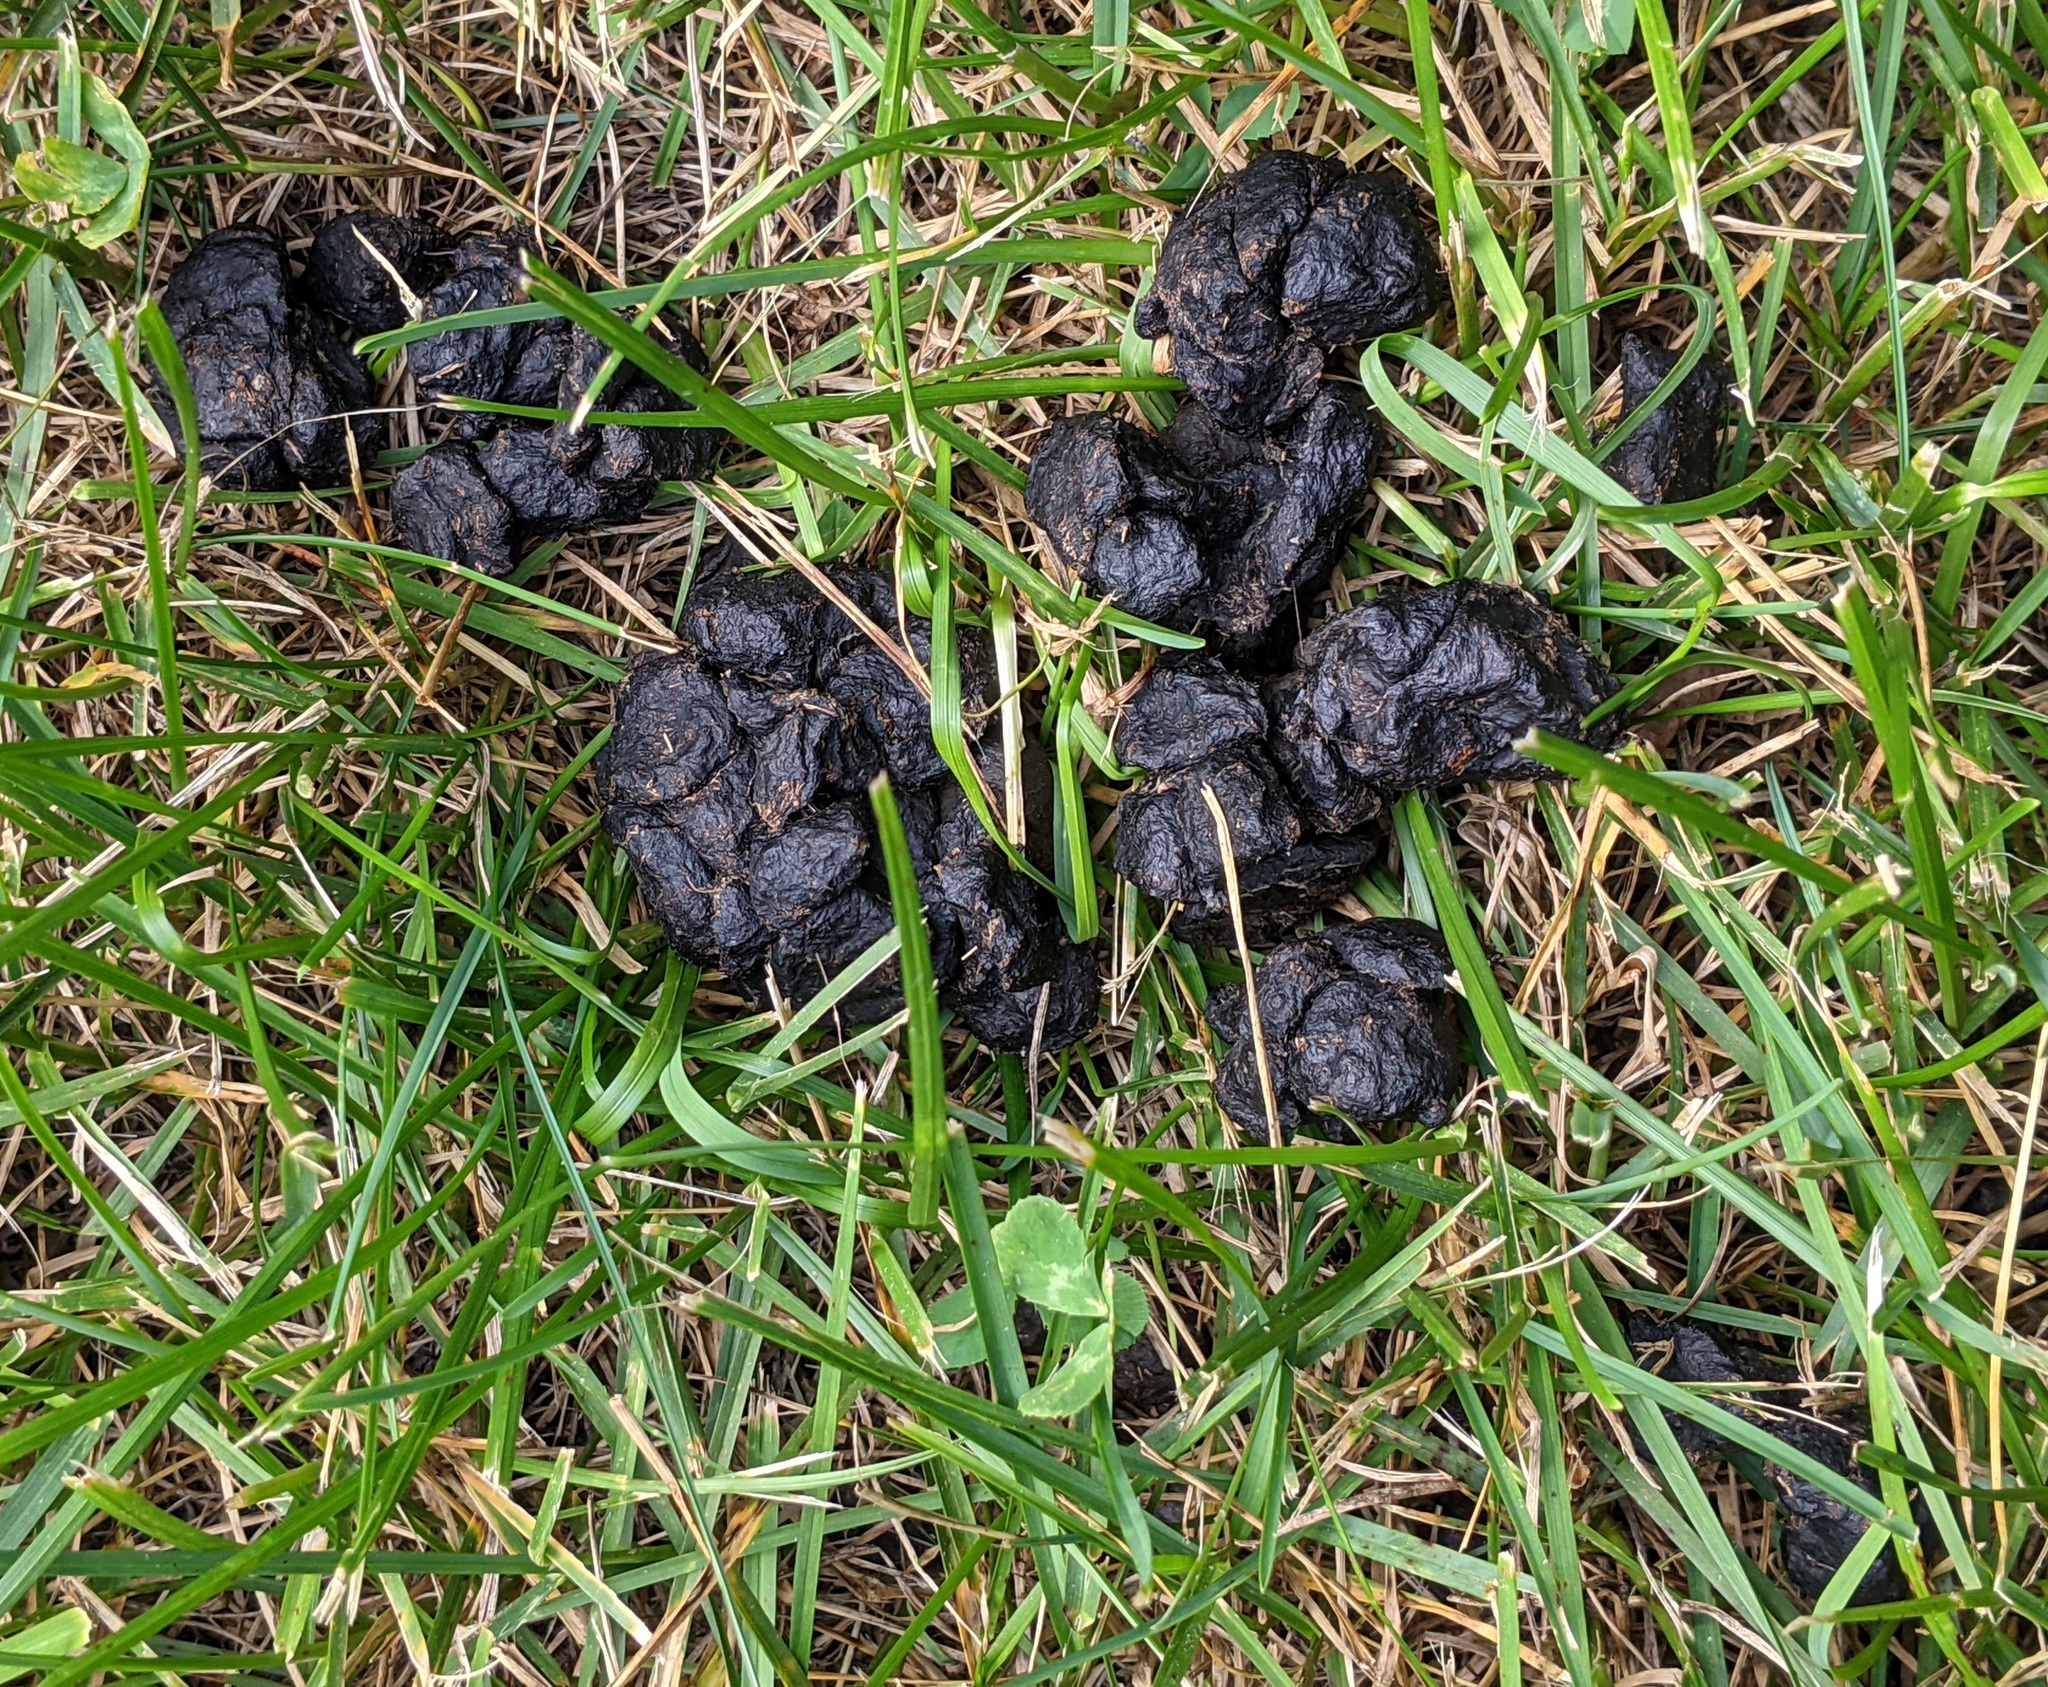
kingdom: Animalia
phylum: Chordata
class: Mammalia
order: Artiodactyla
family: Cervidae
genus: Odocoileus
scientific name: Odocoileus virginianus
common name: White-tailed deer
